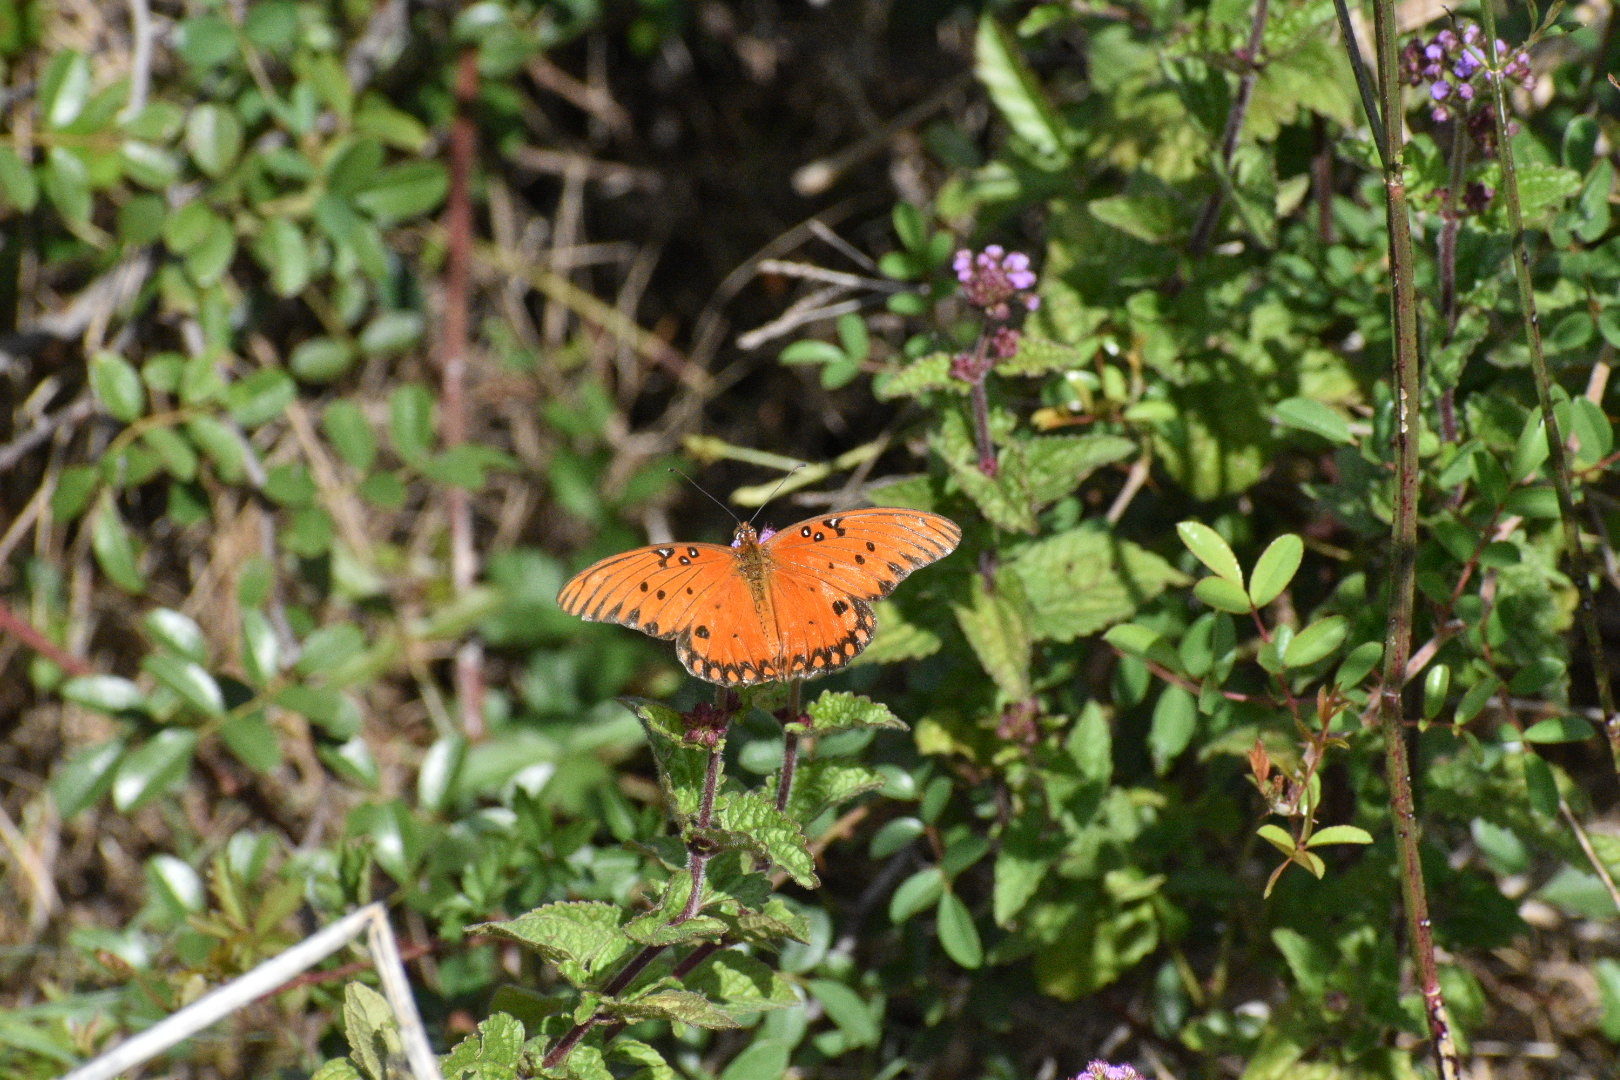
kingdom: Animalia
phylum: Arthropoda
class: Insecta
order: Lepidoptera
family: Nymphalidae
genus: Dione
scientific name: Dione vanillae
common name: Gulf fritillary
